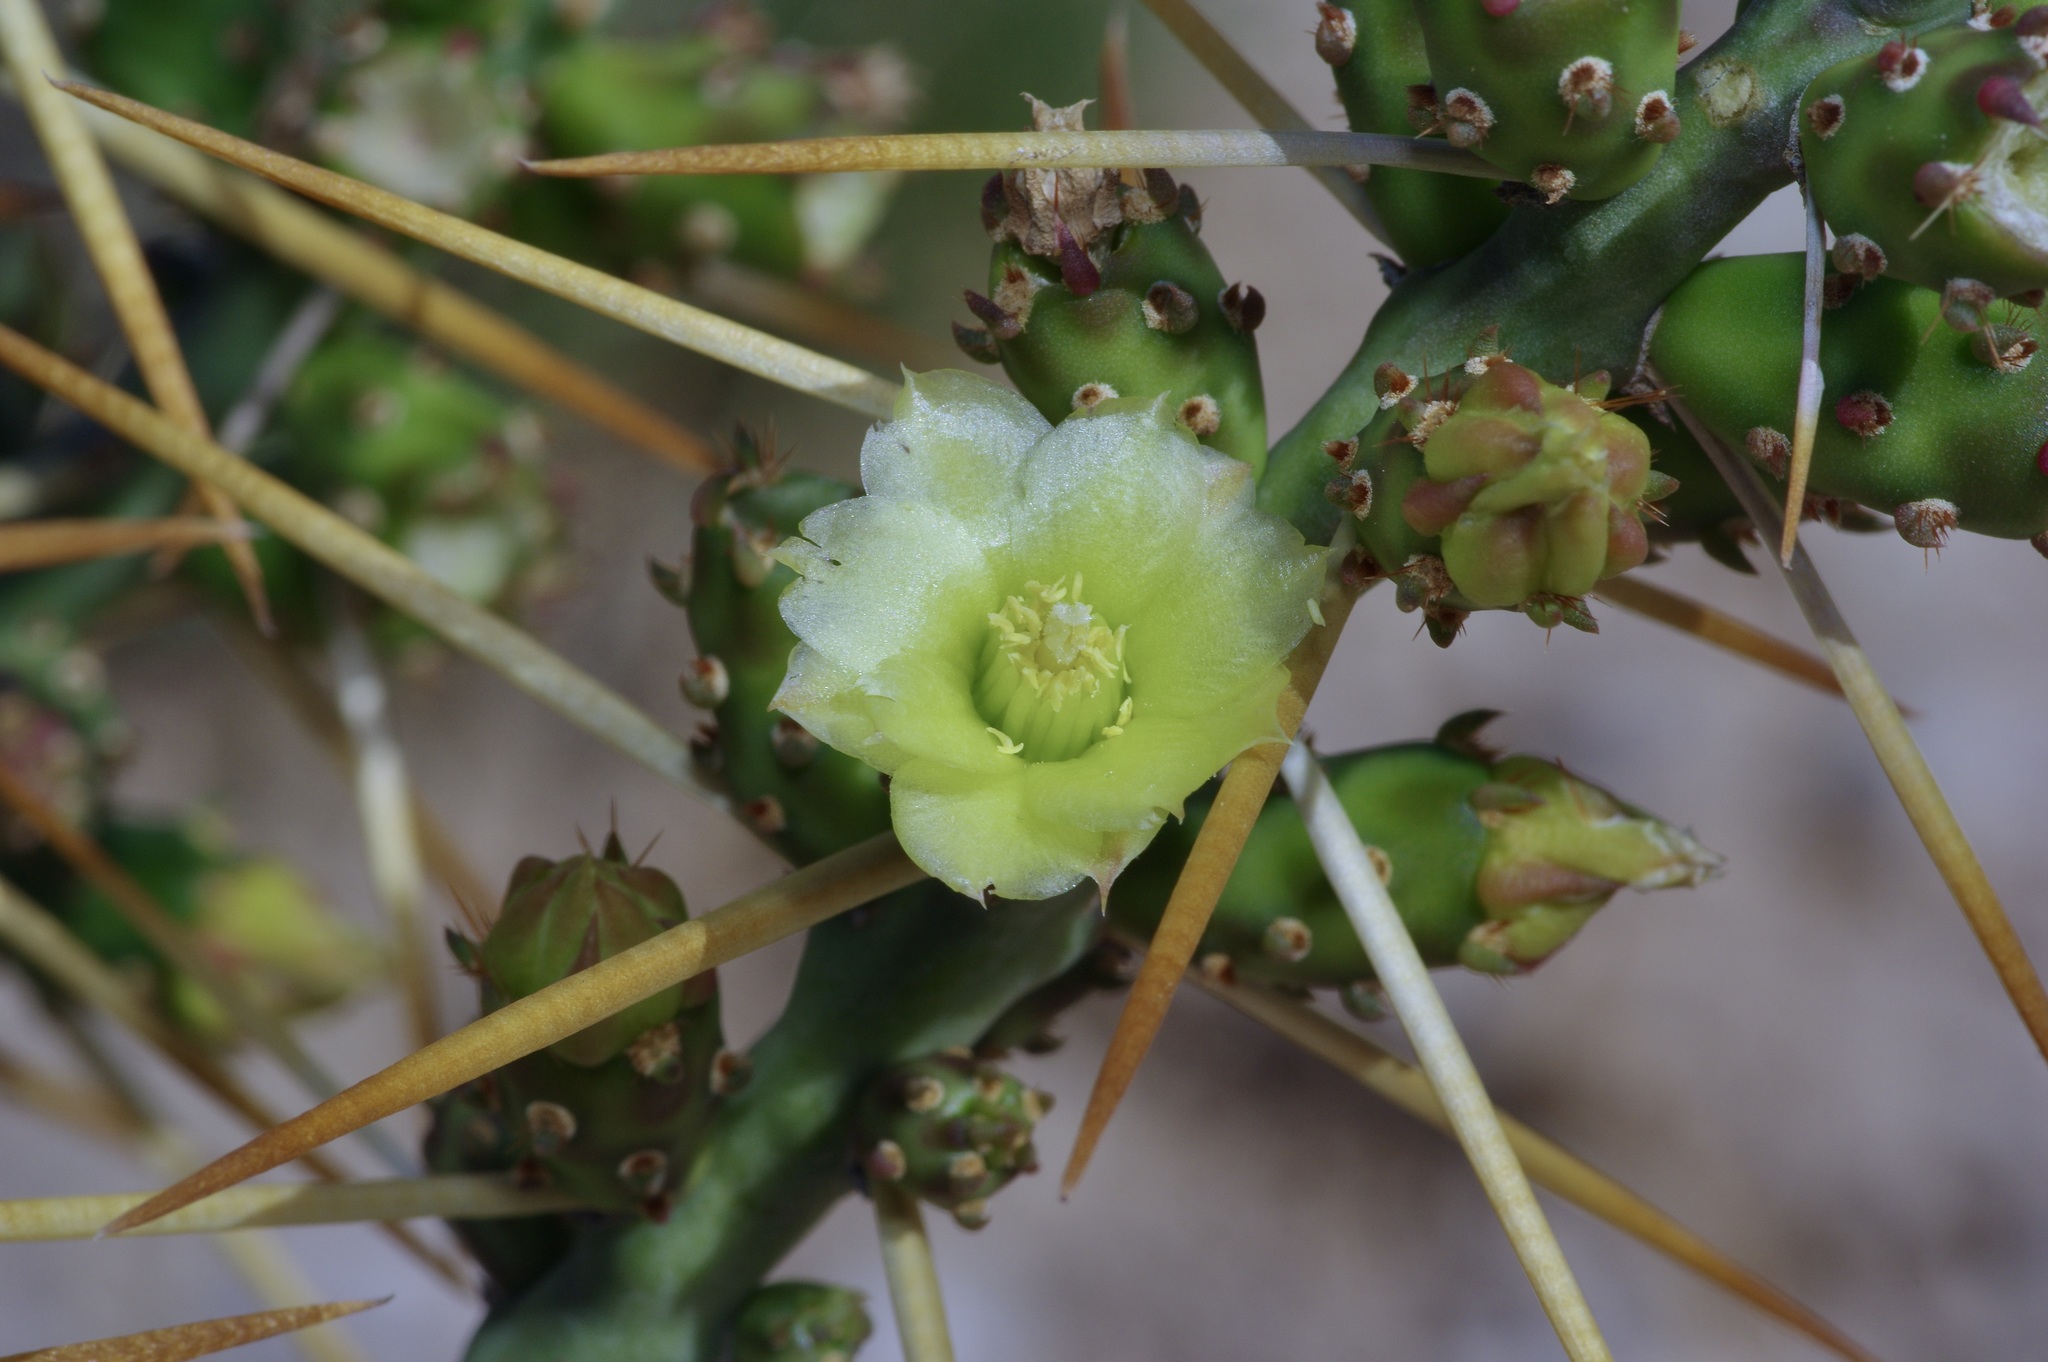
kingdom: Plantae
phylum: Tracheophyta
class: Magnoliopsida
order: Caryophyllales
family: Cactaceae
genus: Cylindropuntia
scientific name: Cylindropuntia leptocaulis
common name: Christmas cactus
